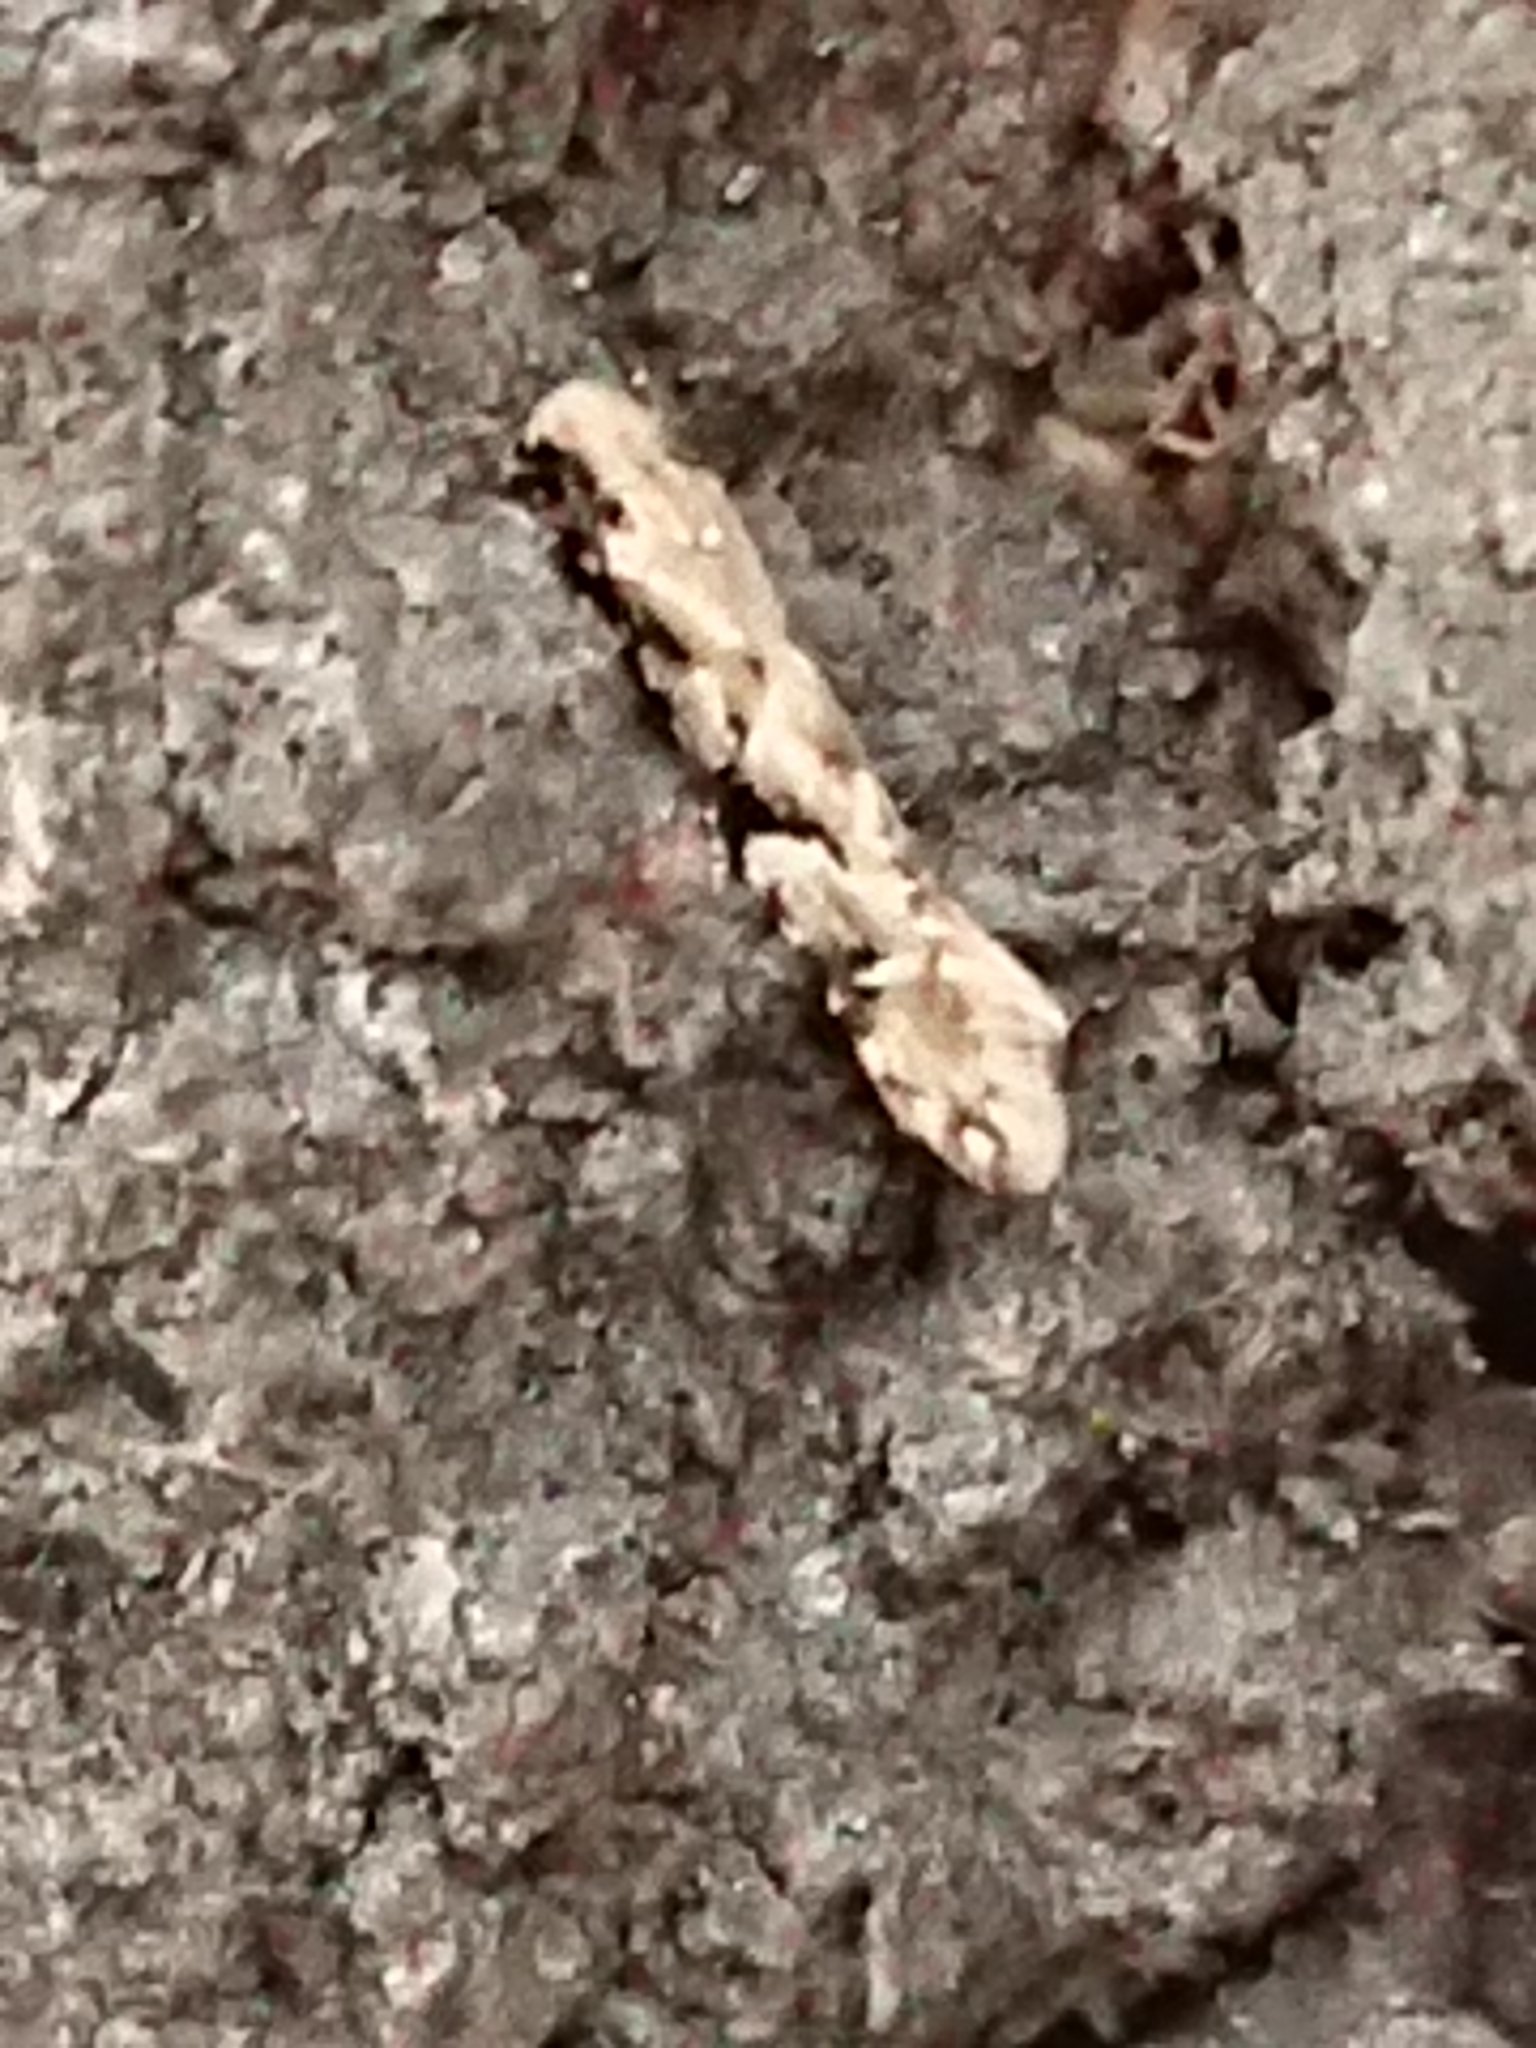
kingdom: Animalia
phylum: Arthropoda
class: Insecta
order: Lepidoptera
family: Tineidae
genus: Crypsitricha
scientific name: Crypsitricha mesotypa
